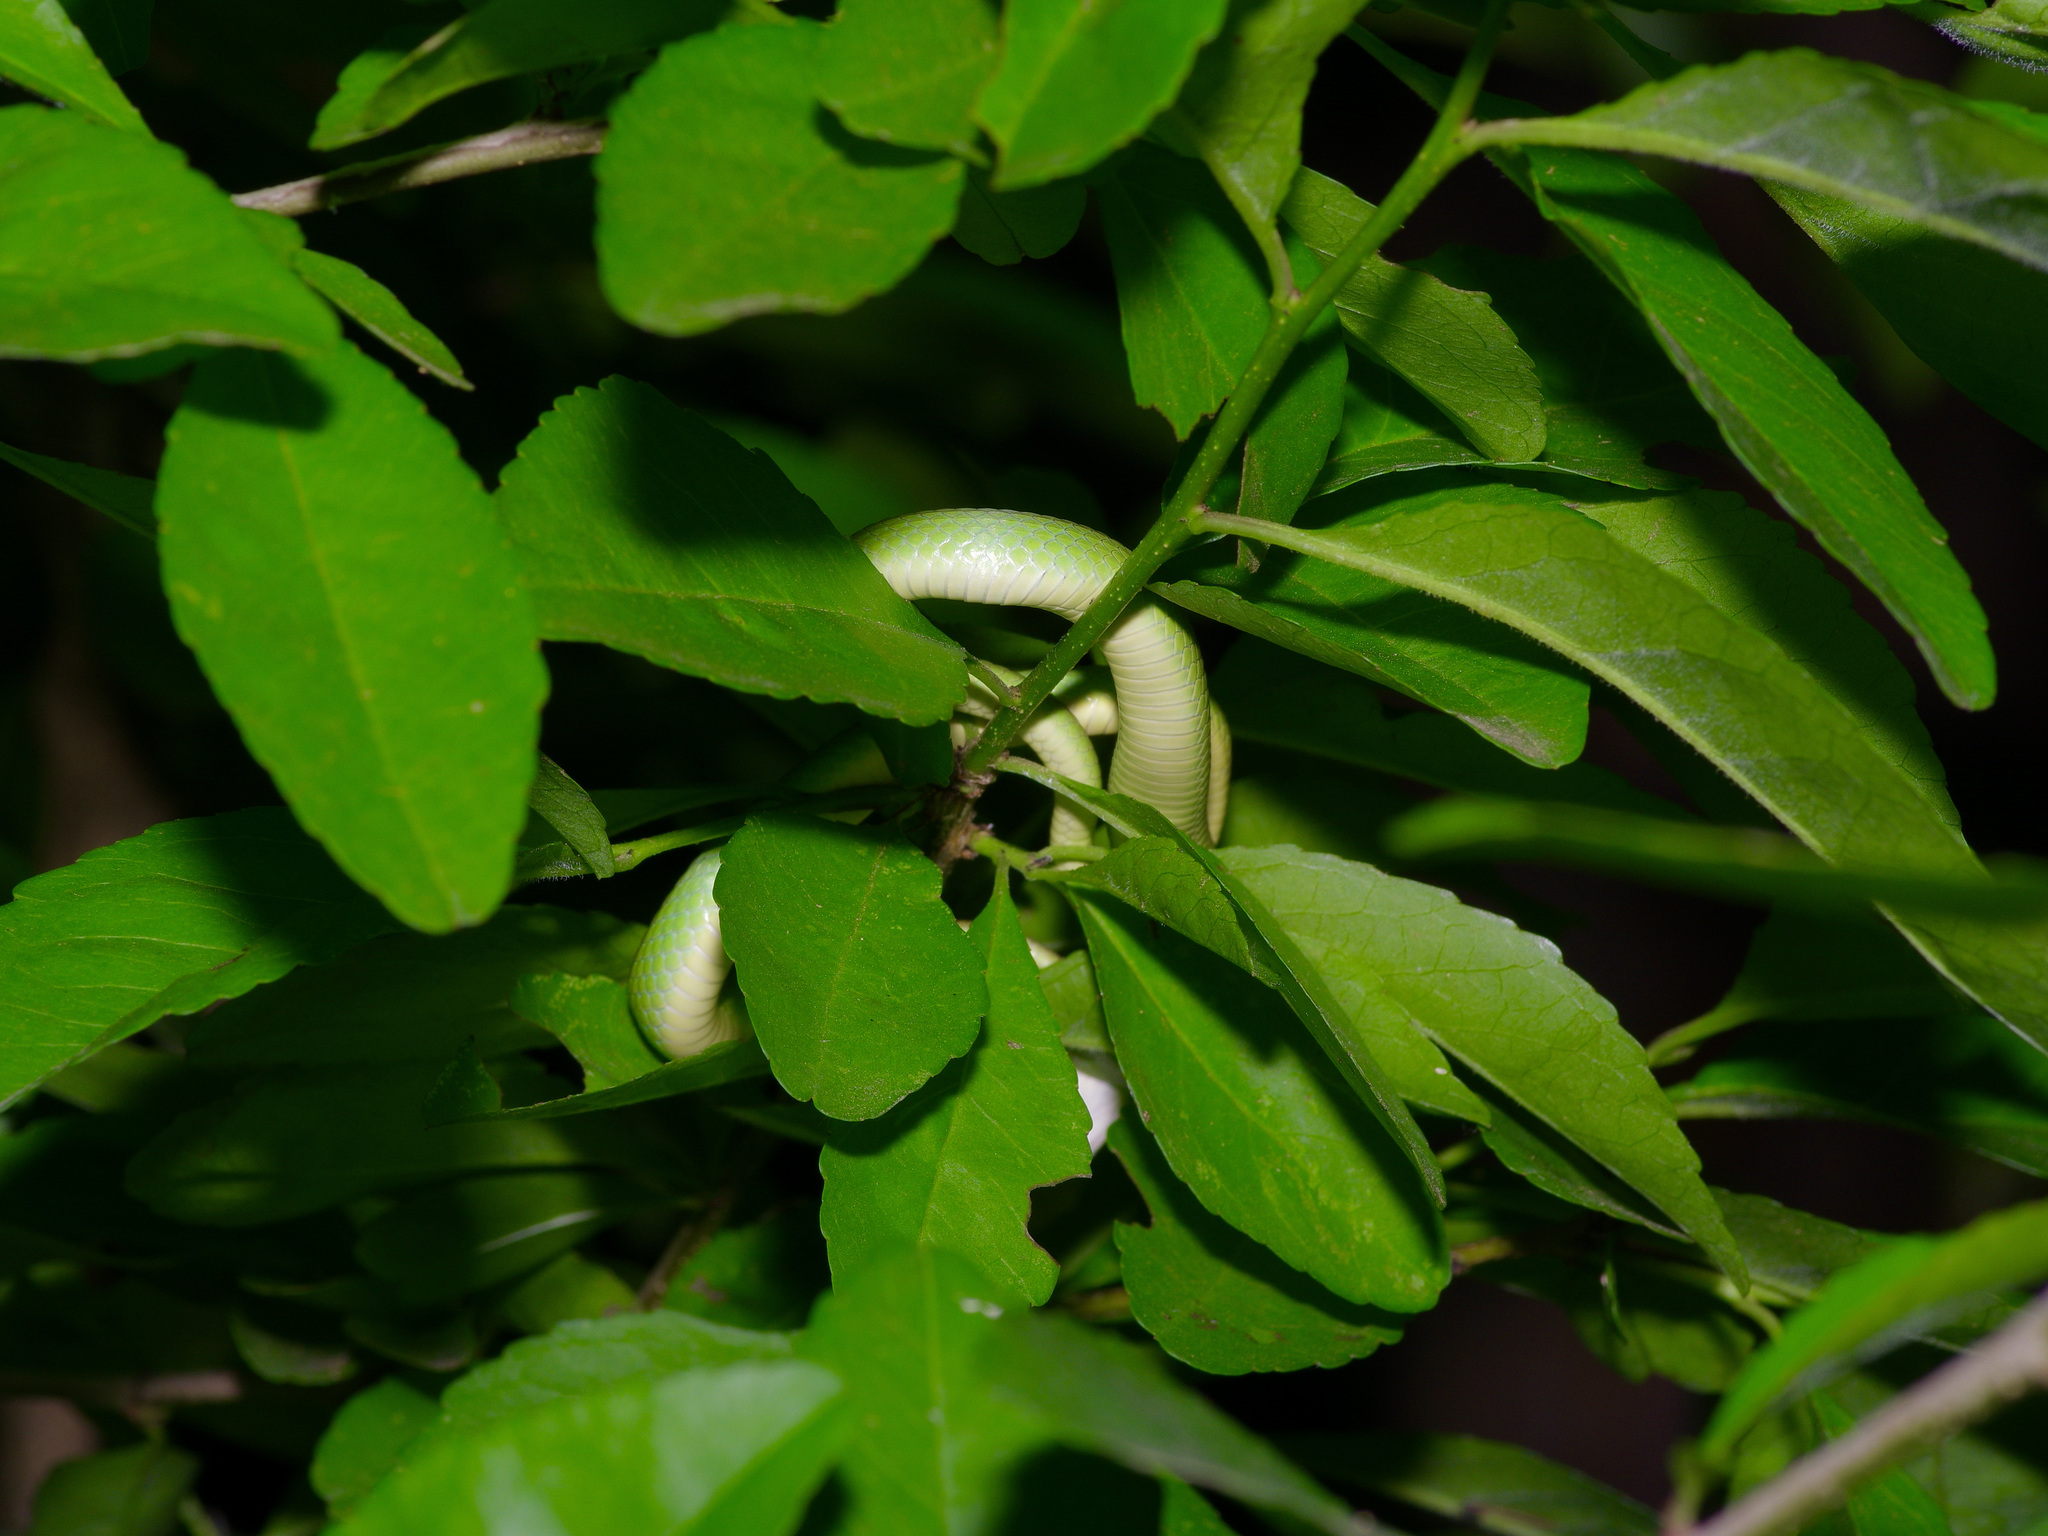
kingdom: Animalia
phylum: Chordata
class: Squamata
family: Colubridae
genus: Opheodrys
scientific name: Opheodrys aestivus
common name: Rough greensnake
